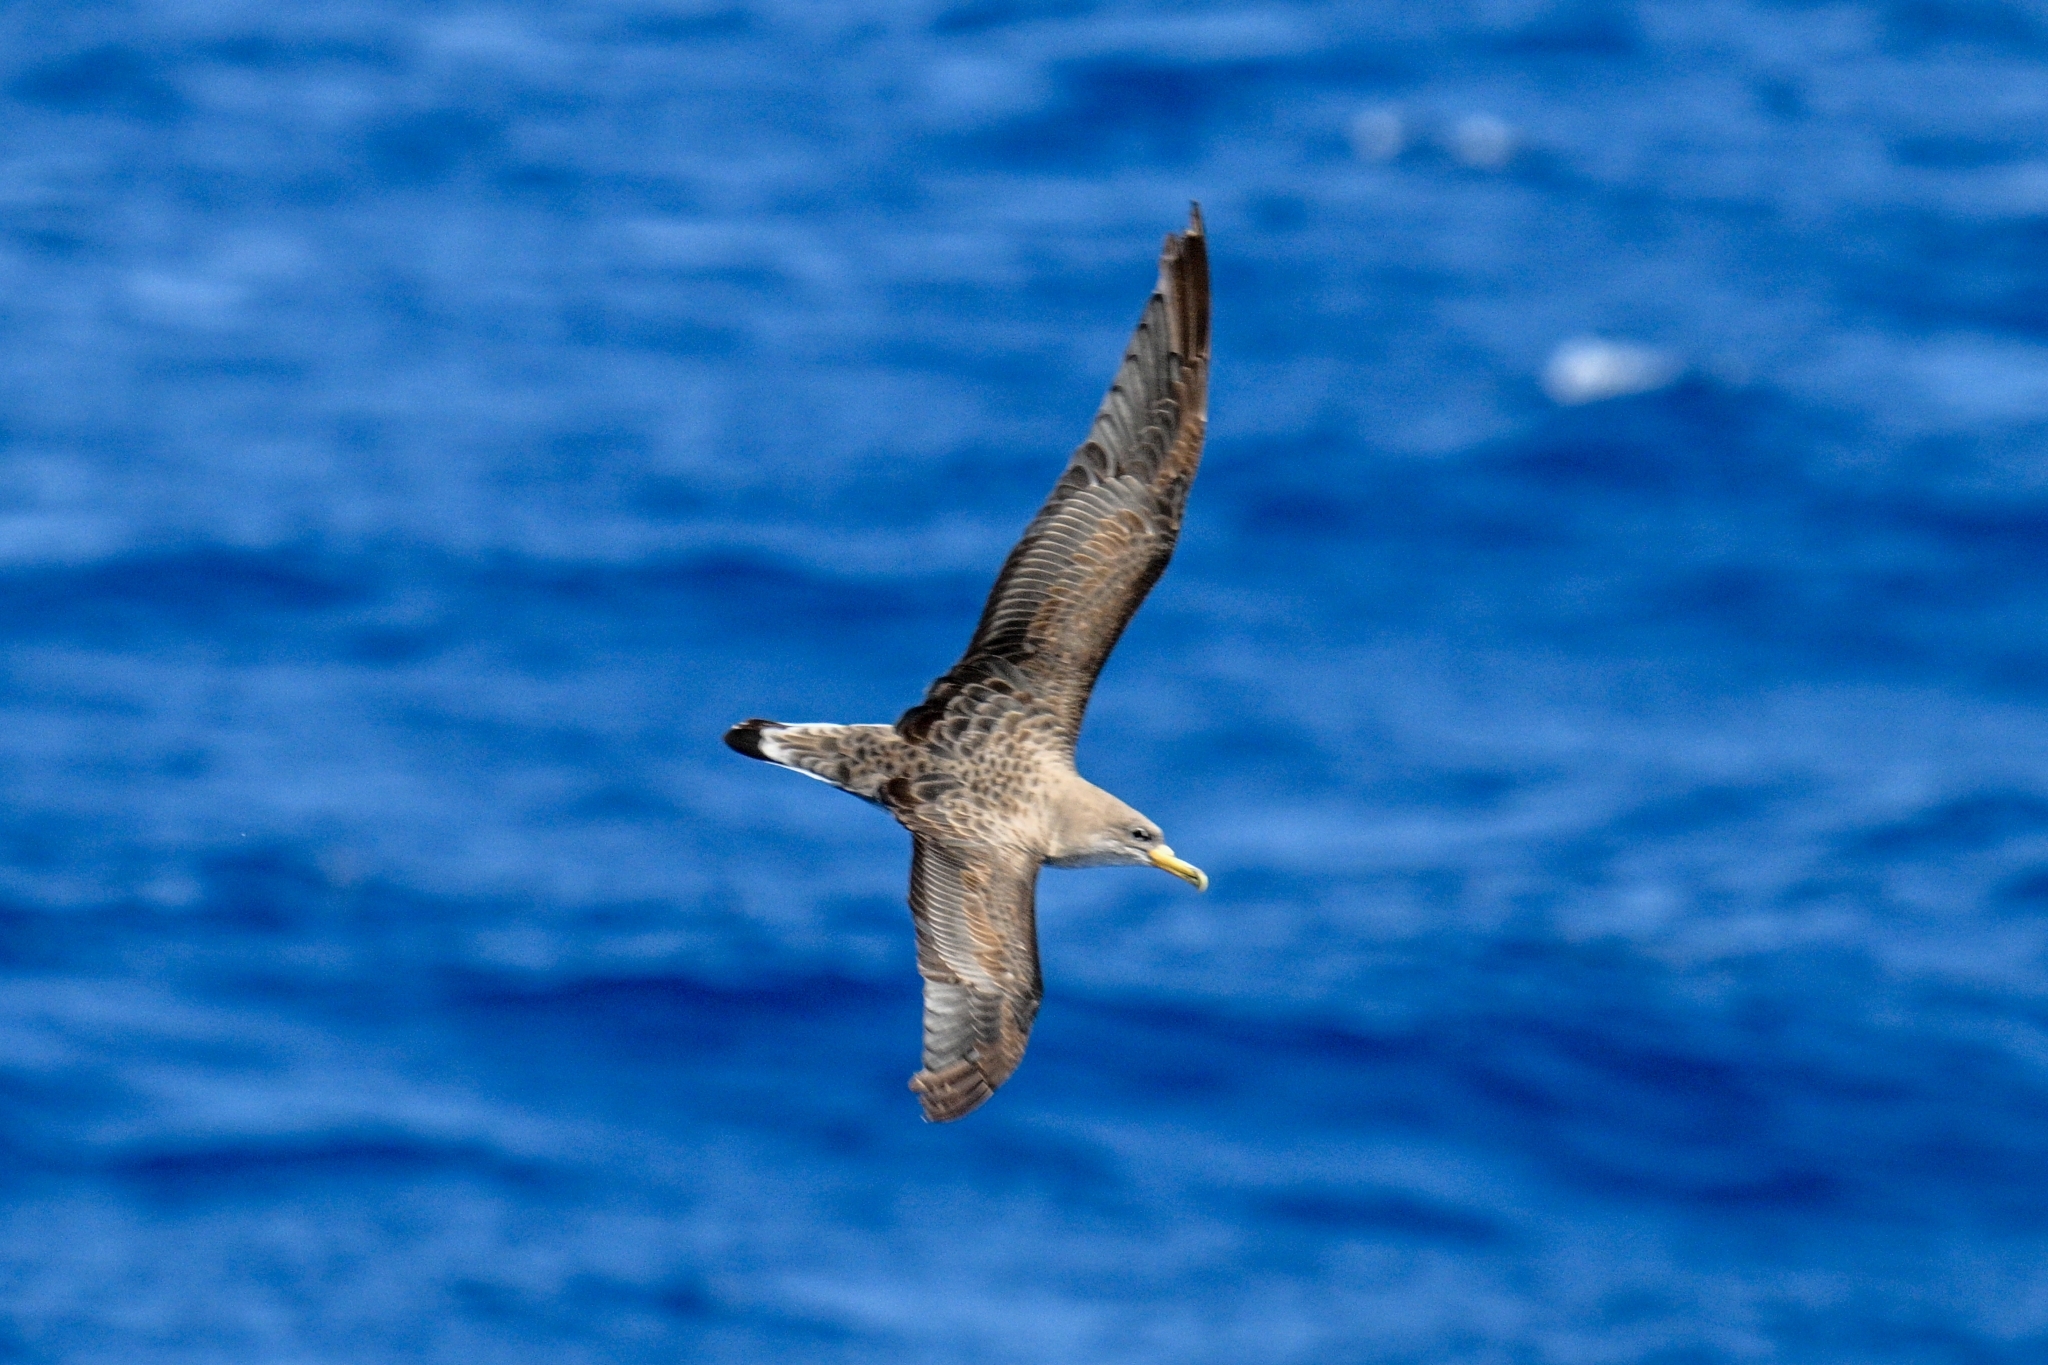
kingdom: Animalia
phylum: Chordata
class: Aves
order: Procellariiformes
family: Procellariidae
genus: Calonectris
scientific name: Calonectris diomedea
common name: Cory's shearwater
